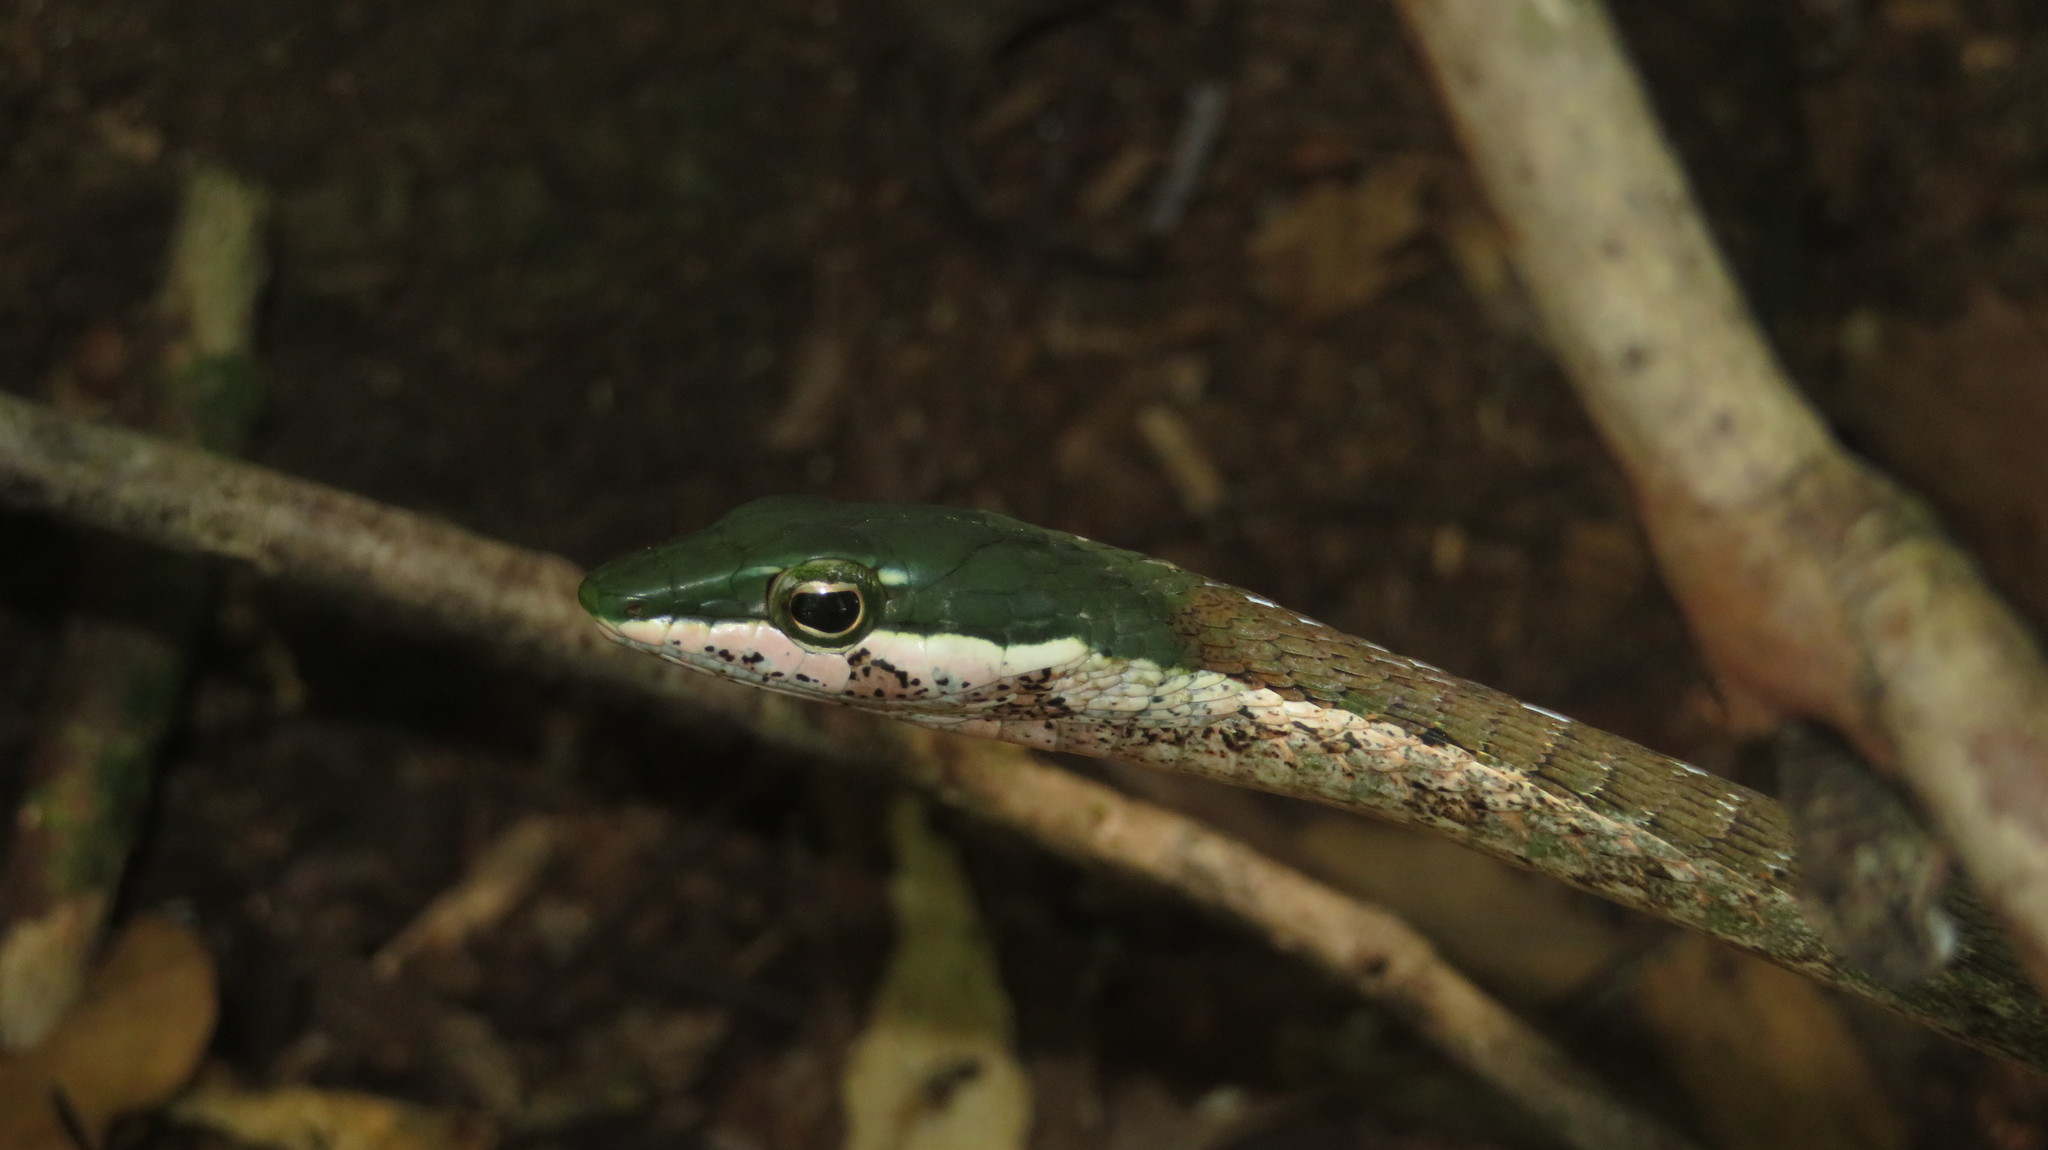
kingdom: Animalia
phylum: Chordata
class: Squamata
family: Colubridae
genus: Thelotornis
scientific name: Thelotornis usambaricus
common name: Usambara vine snake
